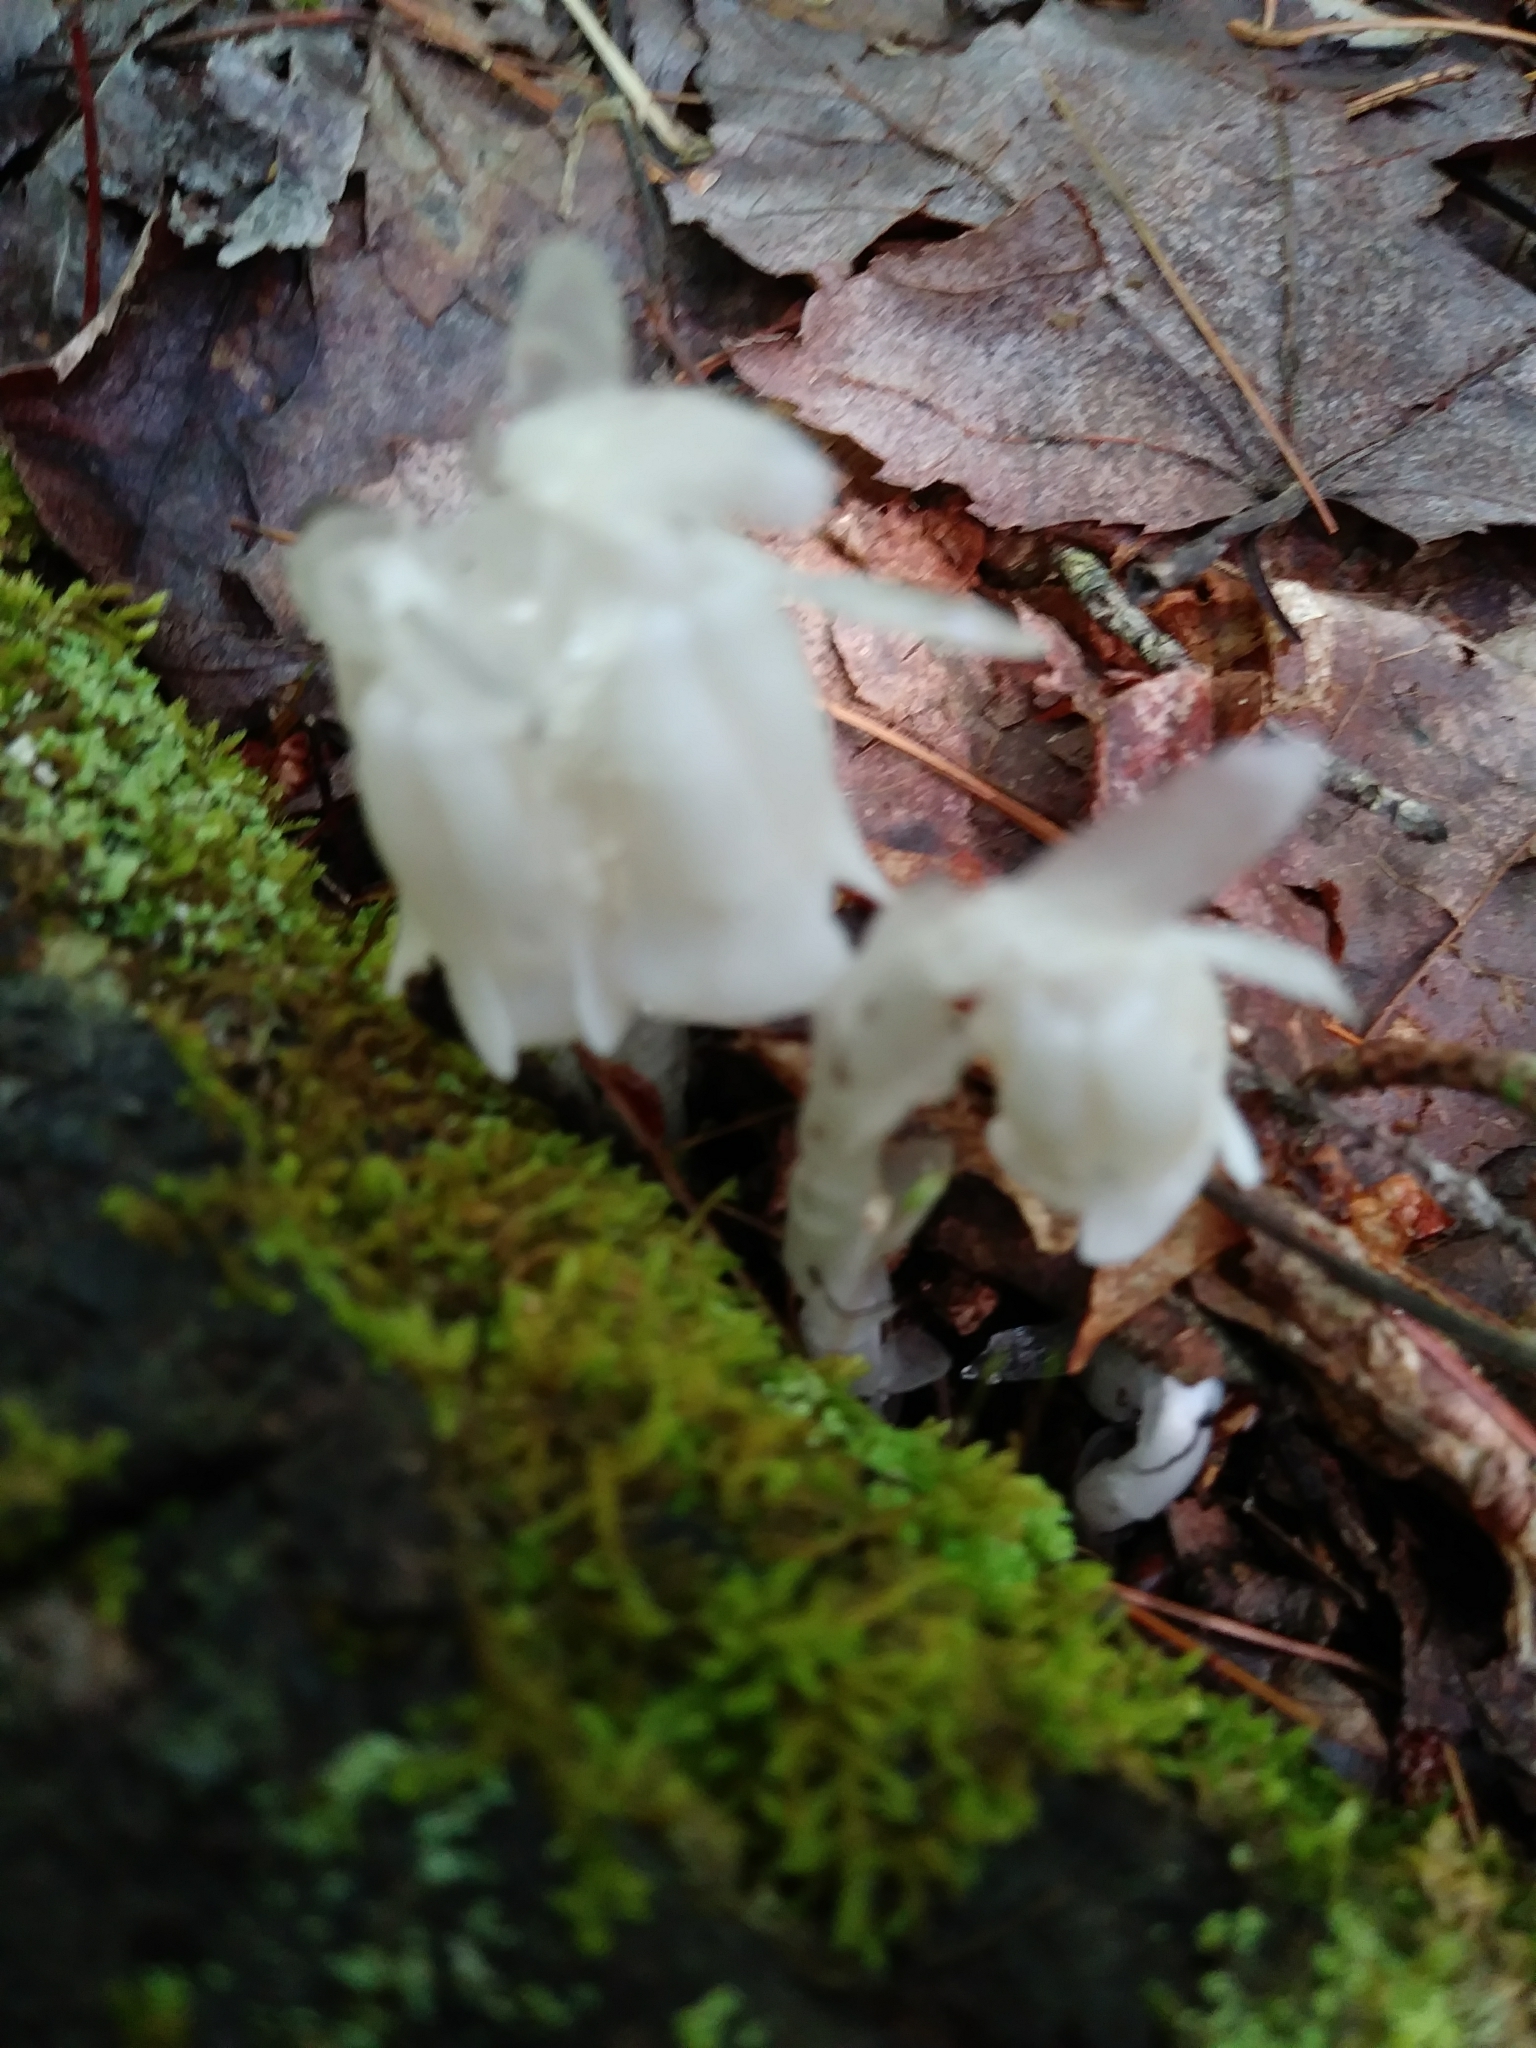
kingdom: Plantae
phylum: Tracheophyta
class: Magnoliopsida
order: Ericales
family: Ericaceae
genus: Monotropa
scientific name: Monotropa uniflora
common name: Convulsion root
